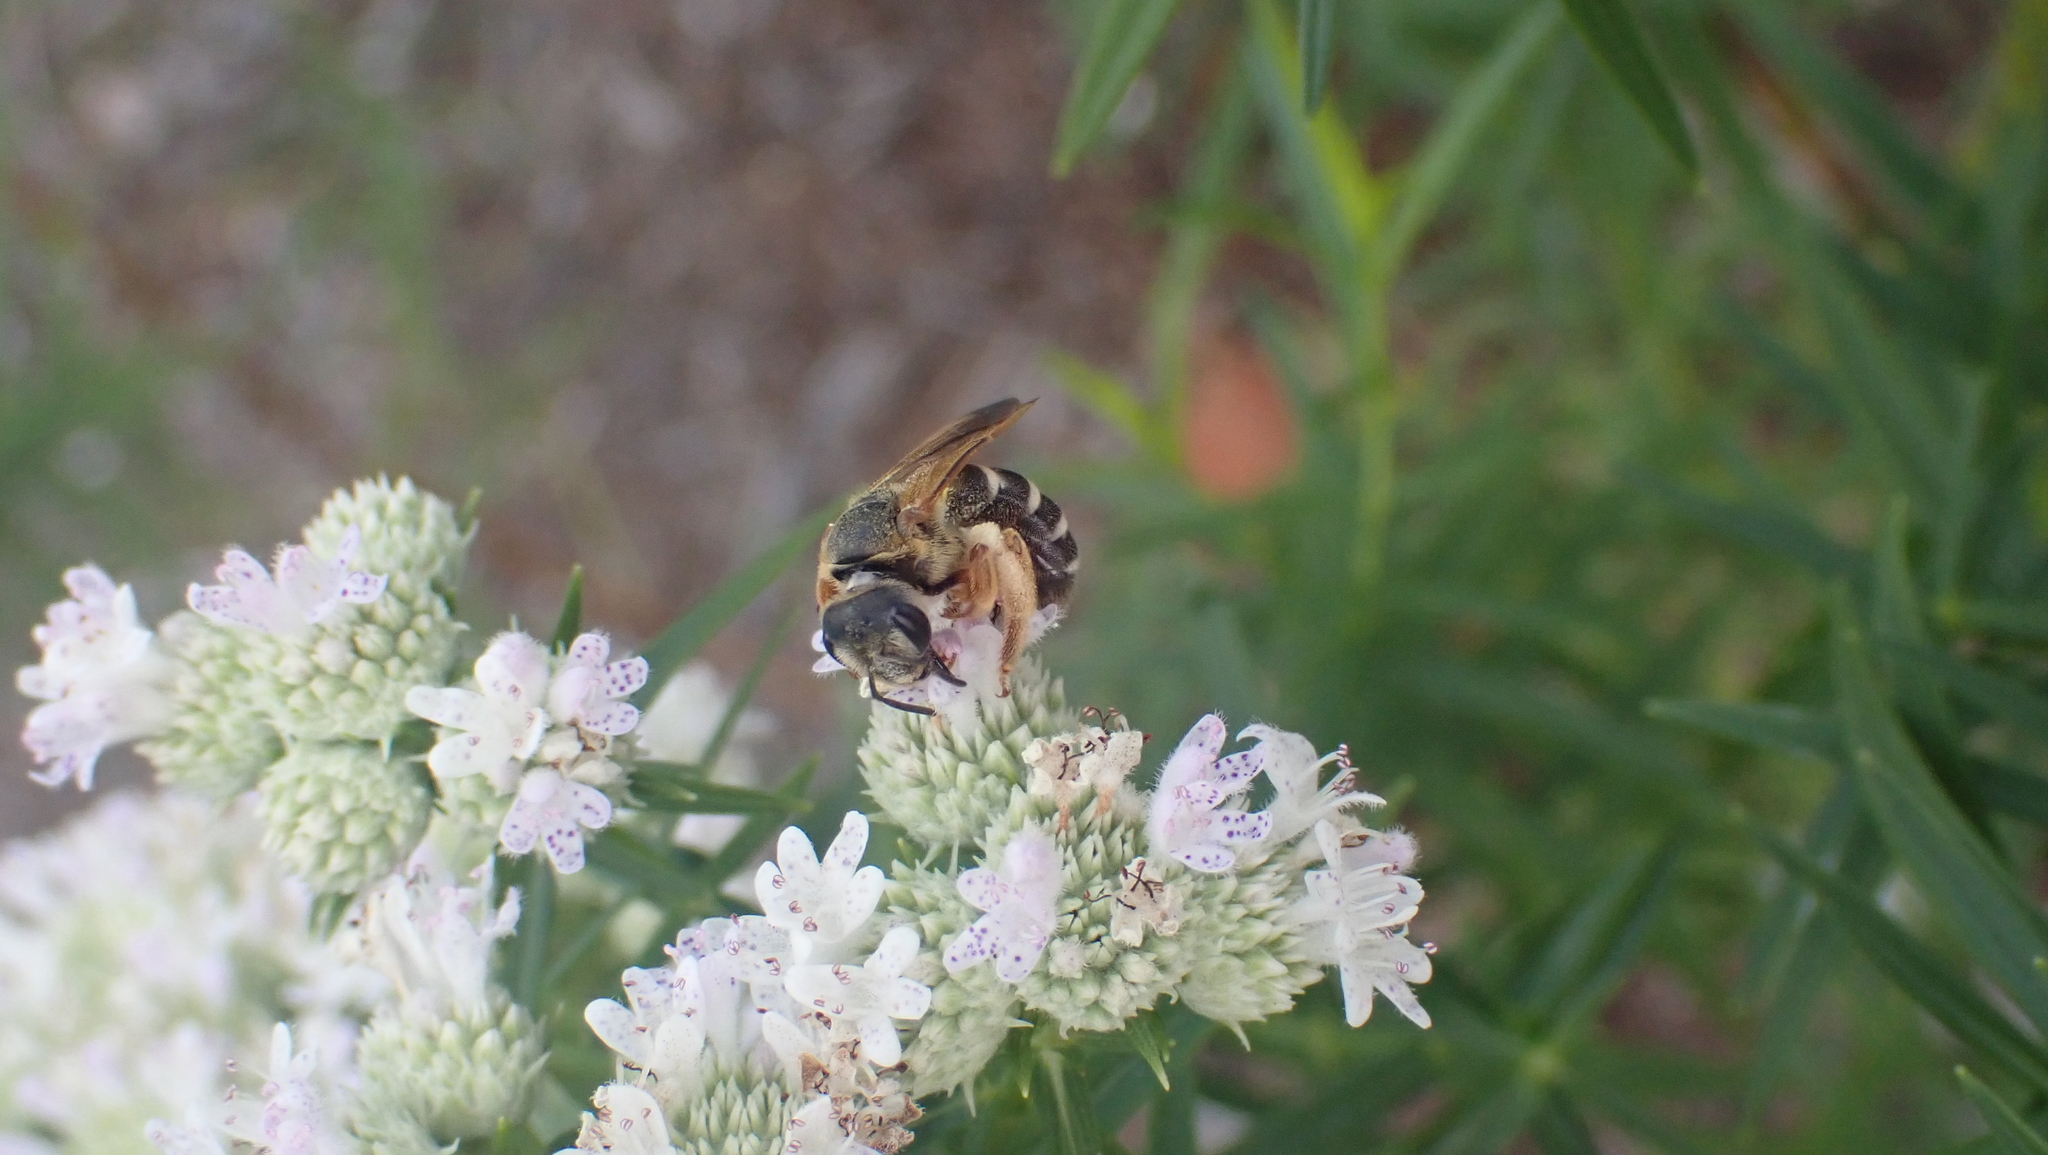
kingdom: Animalia
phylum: Arthropoda
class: Insecta
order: Hymenoptera
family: Halictidae
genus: Halictus
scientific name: Halictus parallelus
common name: Parallel-striped sweat bee
